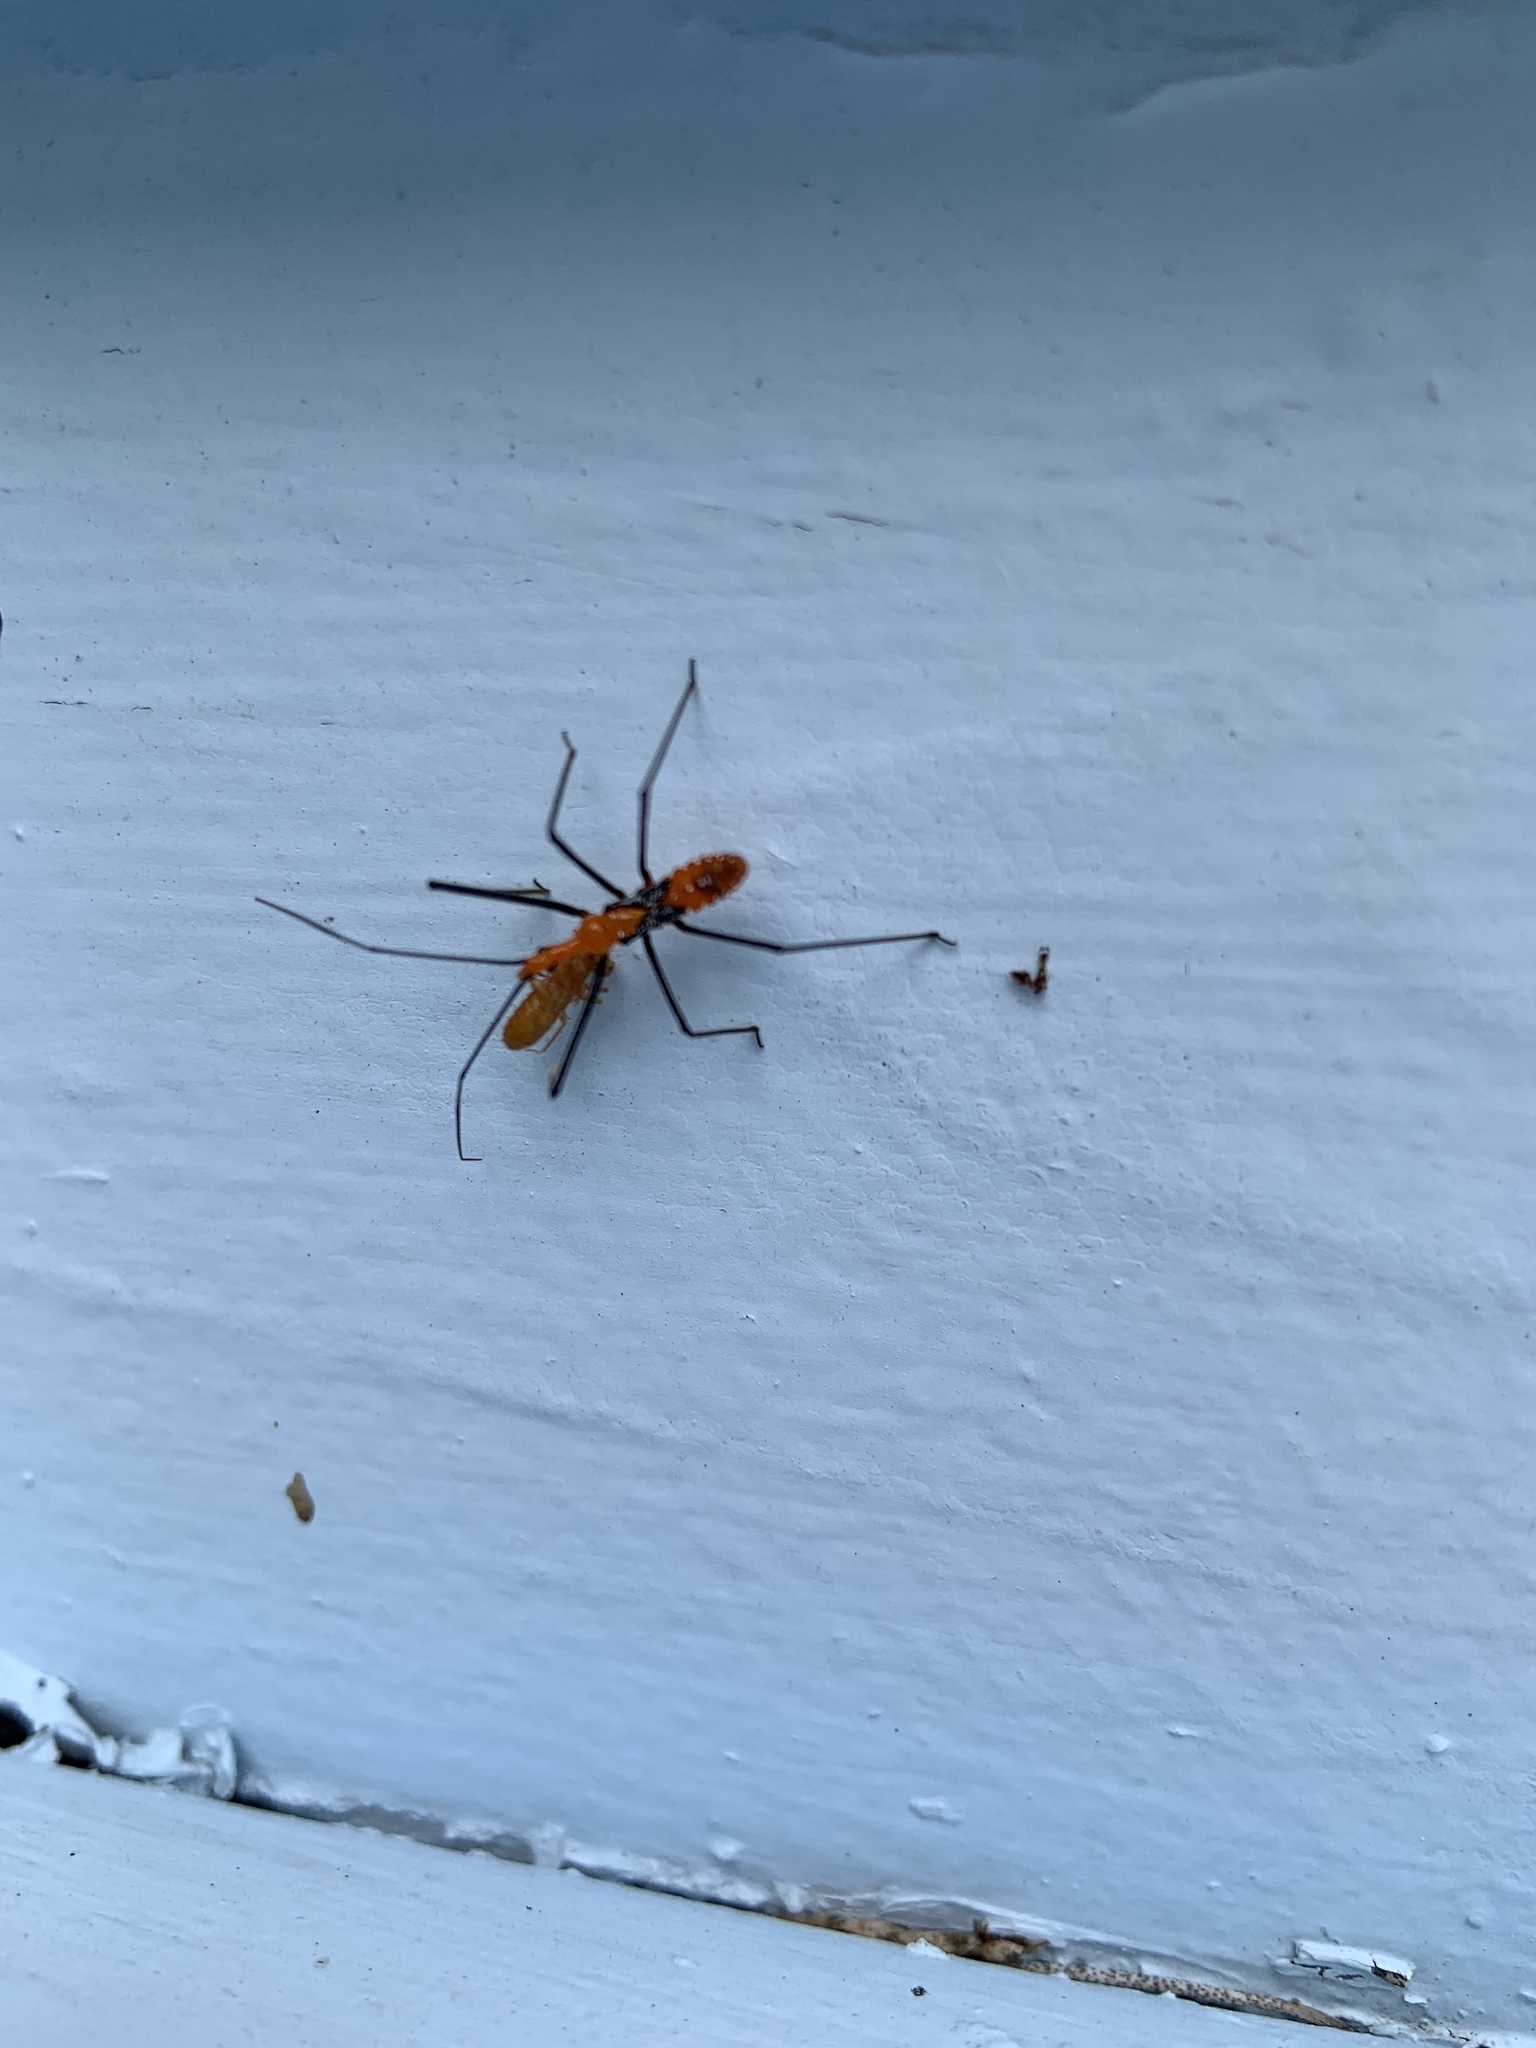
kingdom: Animalia
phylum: Arthropoda
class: Insecta
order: Hemiptera
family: Reduviidae
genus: Zelus
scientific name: Zelus longipes
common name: Milkweed assassin bug
